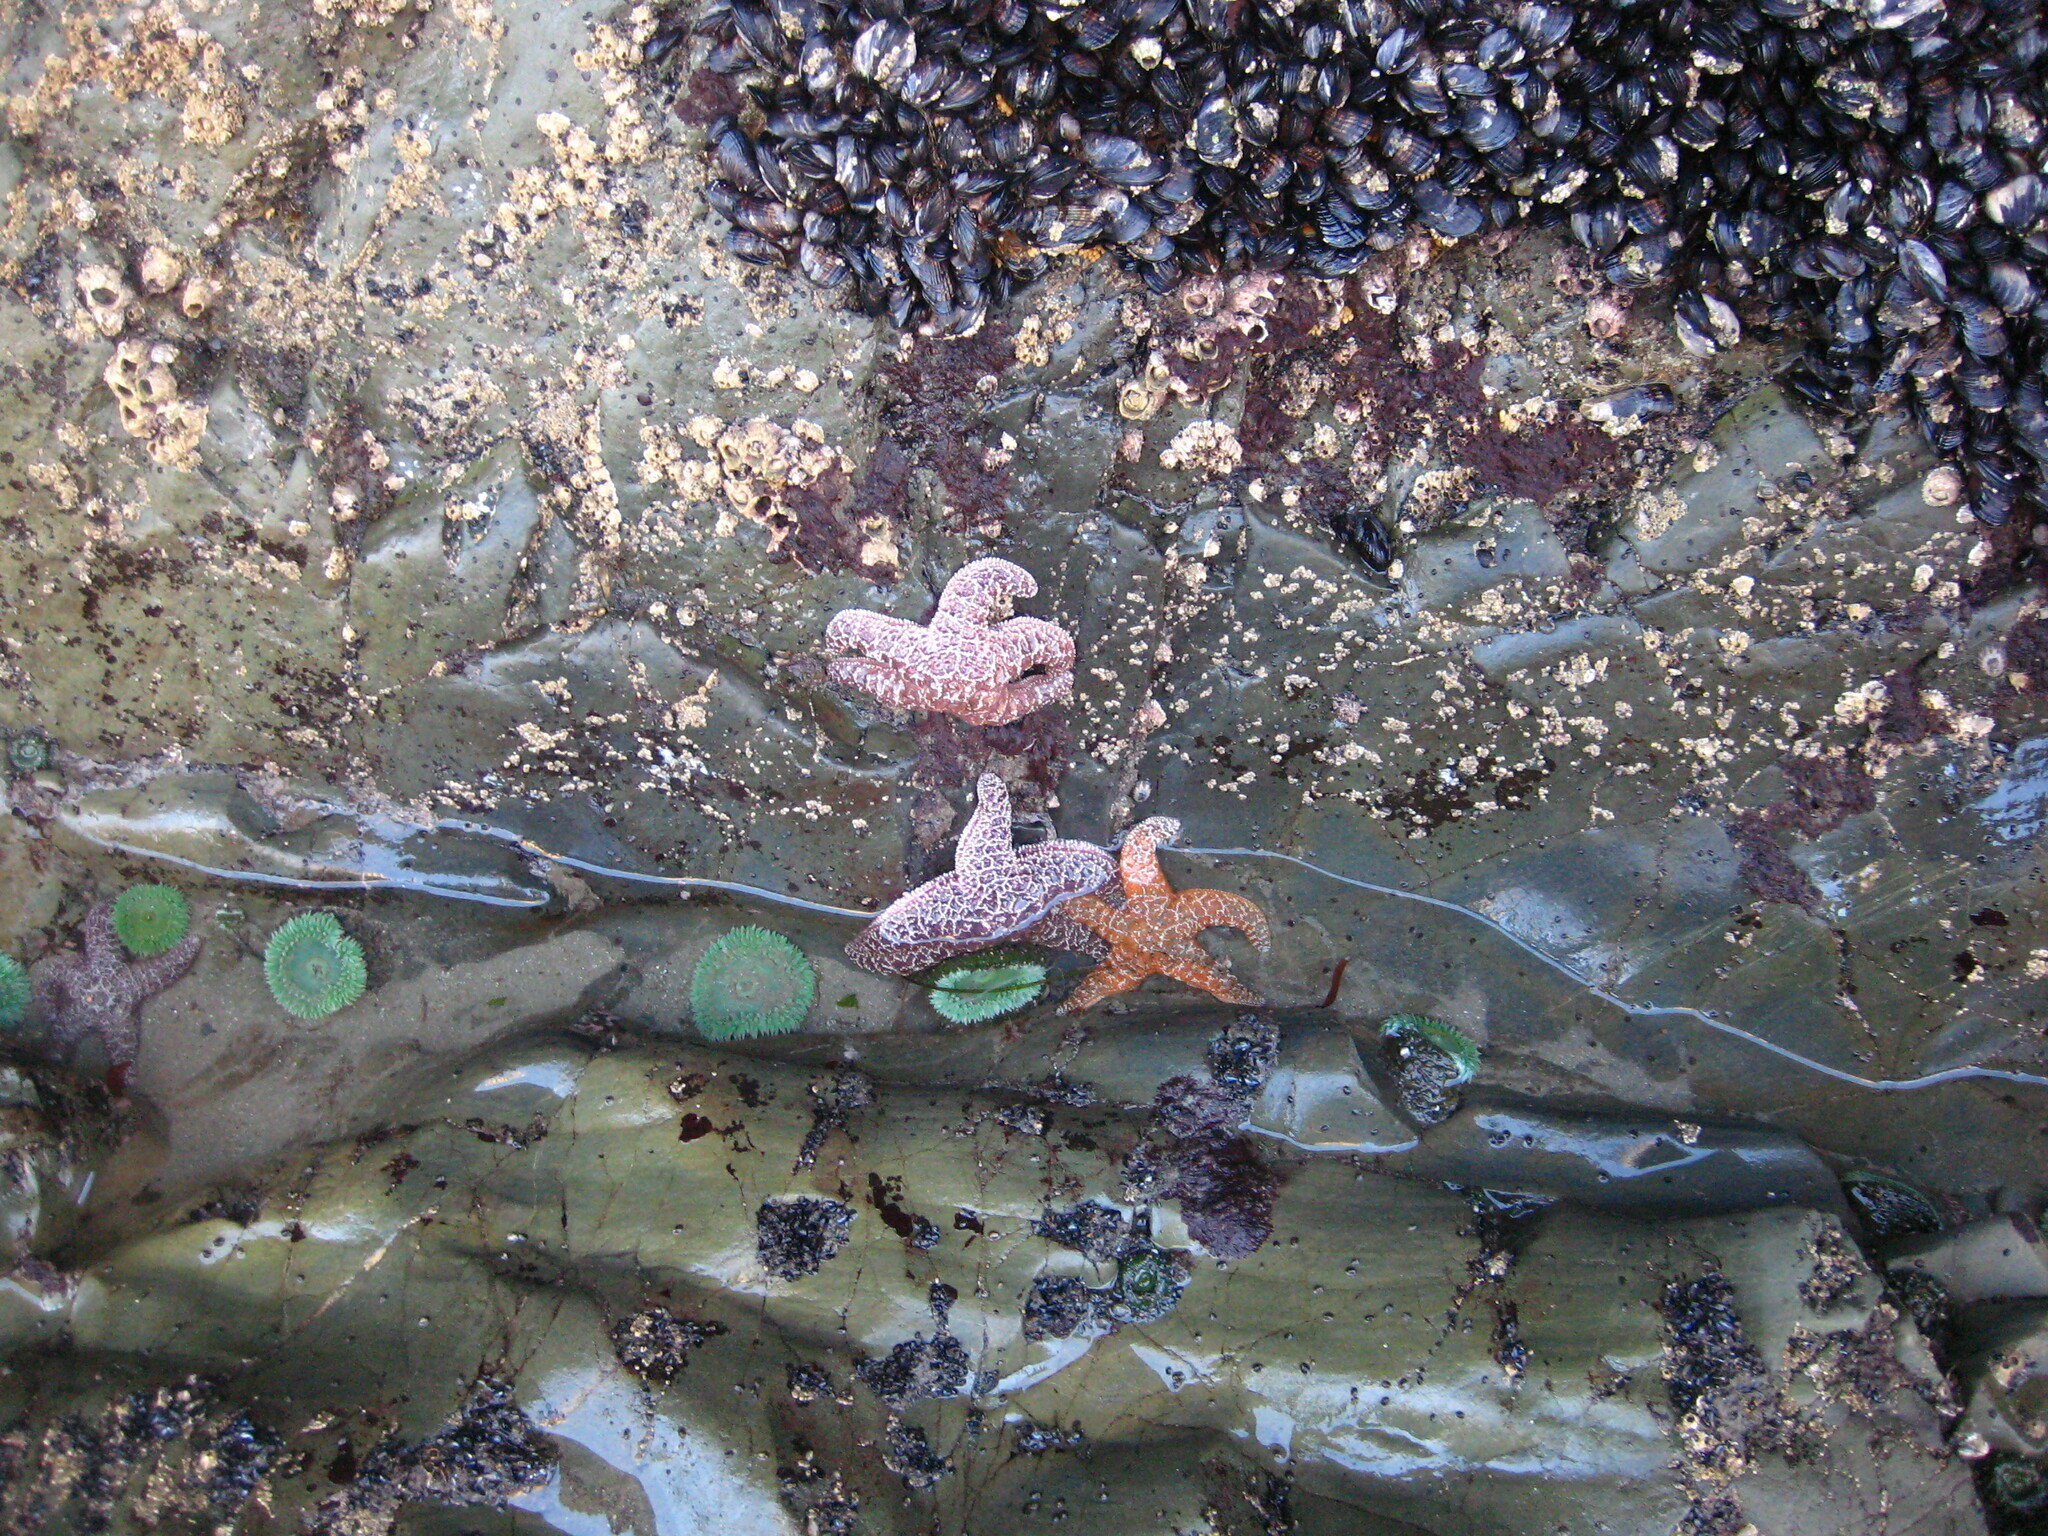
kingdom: Animalia
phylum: Echinodermata
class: Asteroidea
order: Forcipulatida
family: Asteriidae
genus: Pisaster
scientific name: Pisaster ochraceus
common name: Ochre stars
